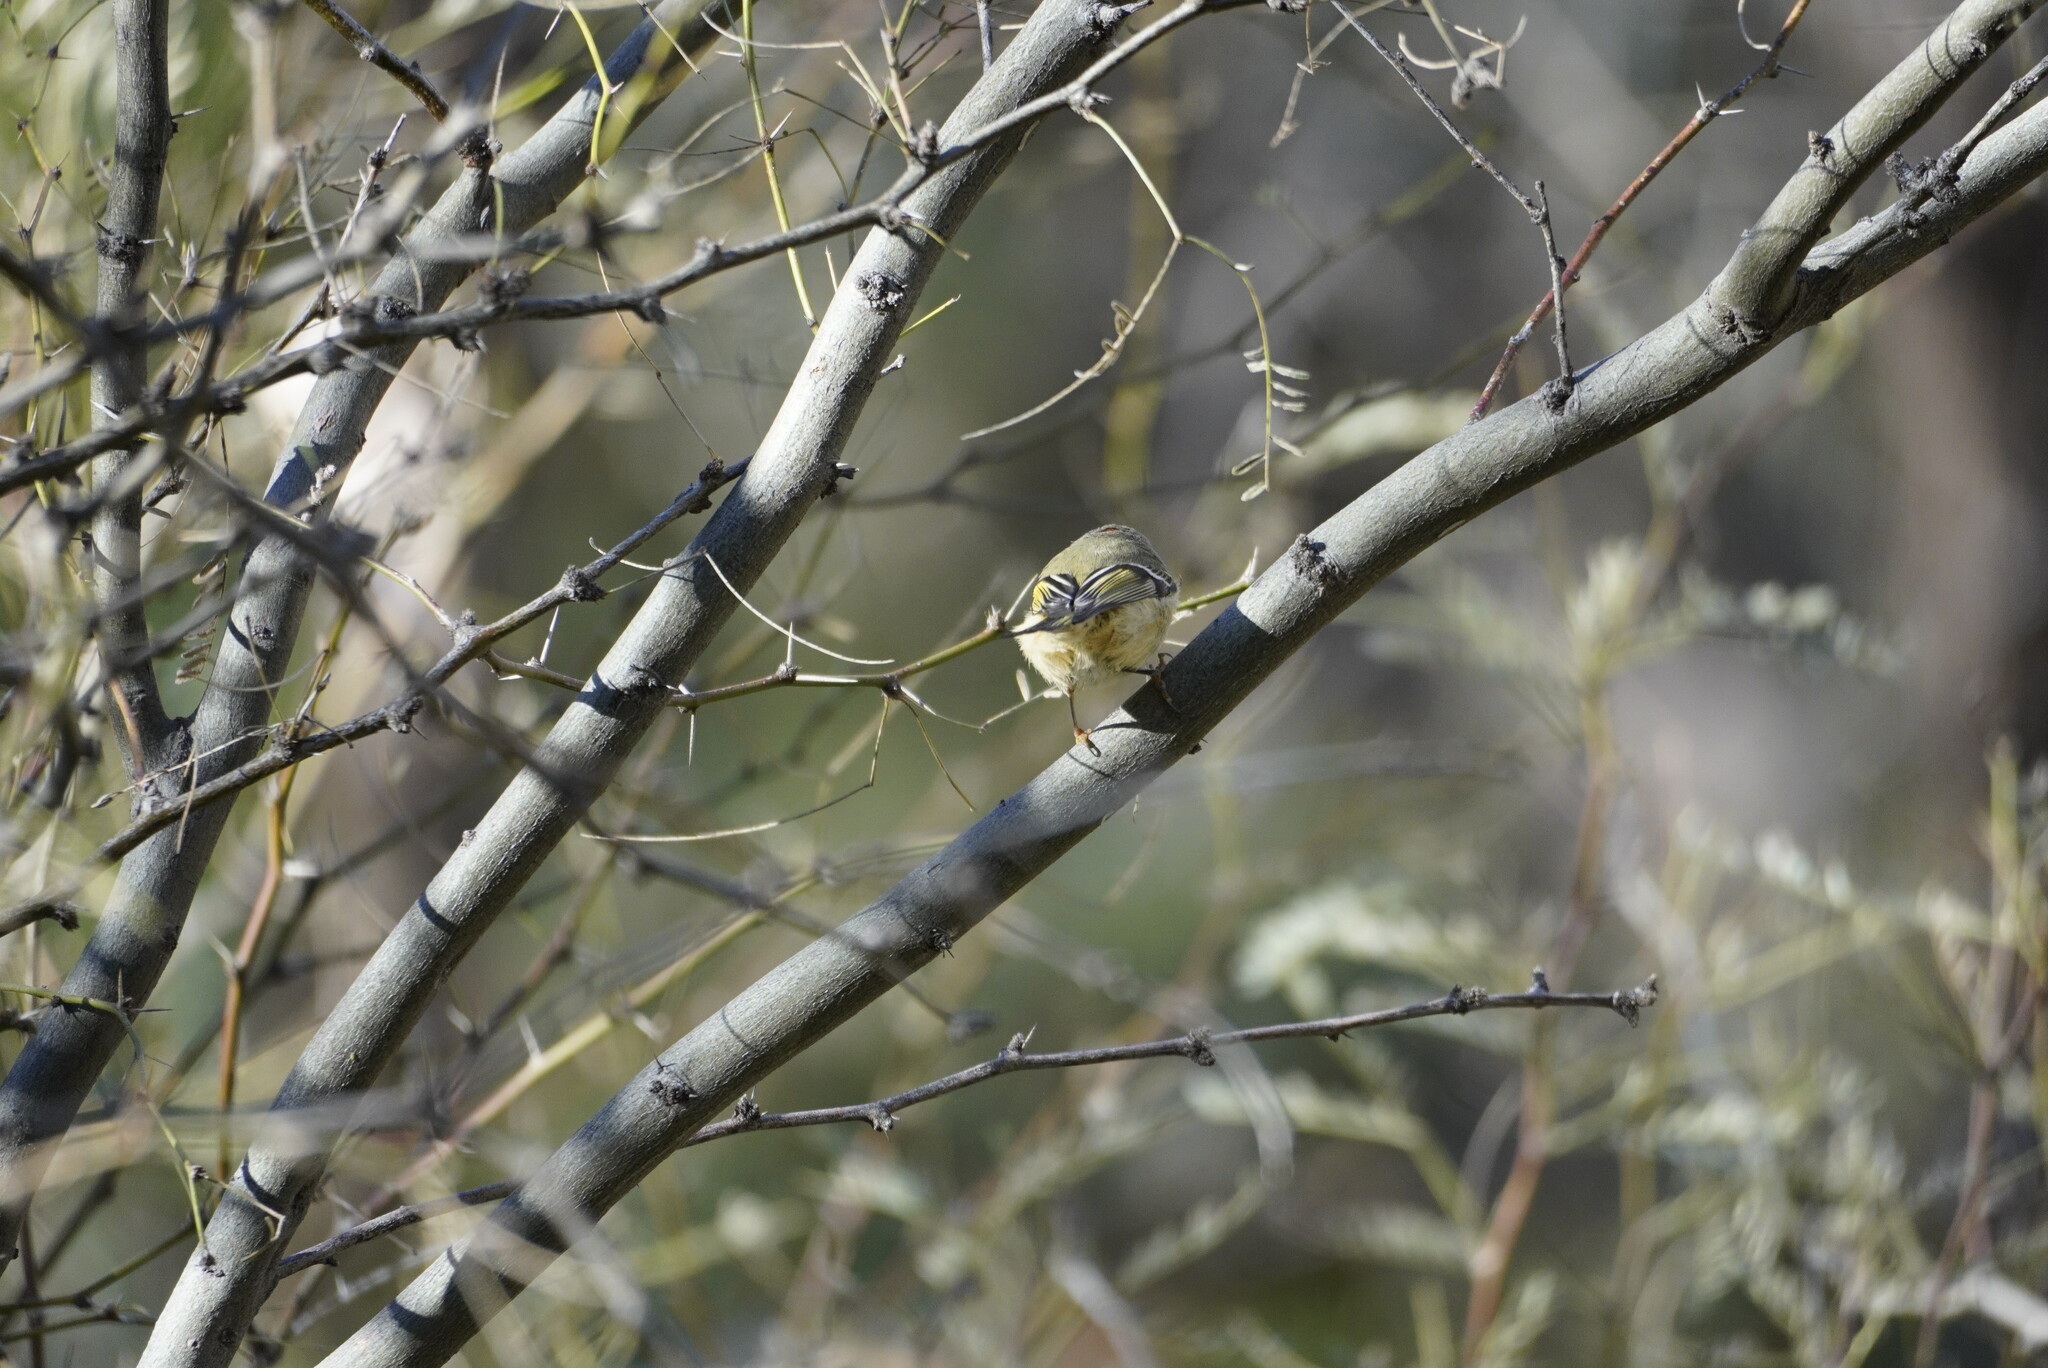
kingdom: Animalia
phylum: Chordata
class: Aves
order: Passeriformes
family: Regulidae
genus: Regulus
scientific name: Regulus calendula
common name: Ruby-crowned kinglet
